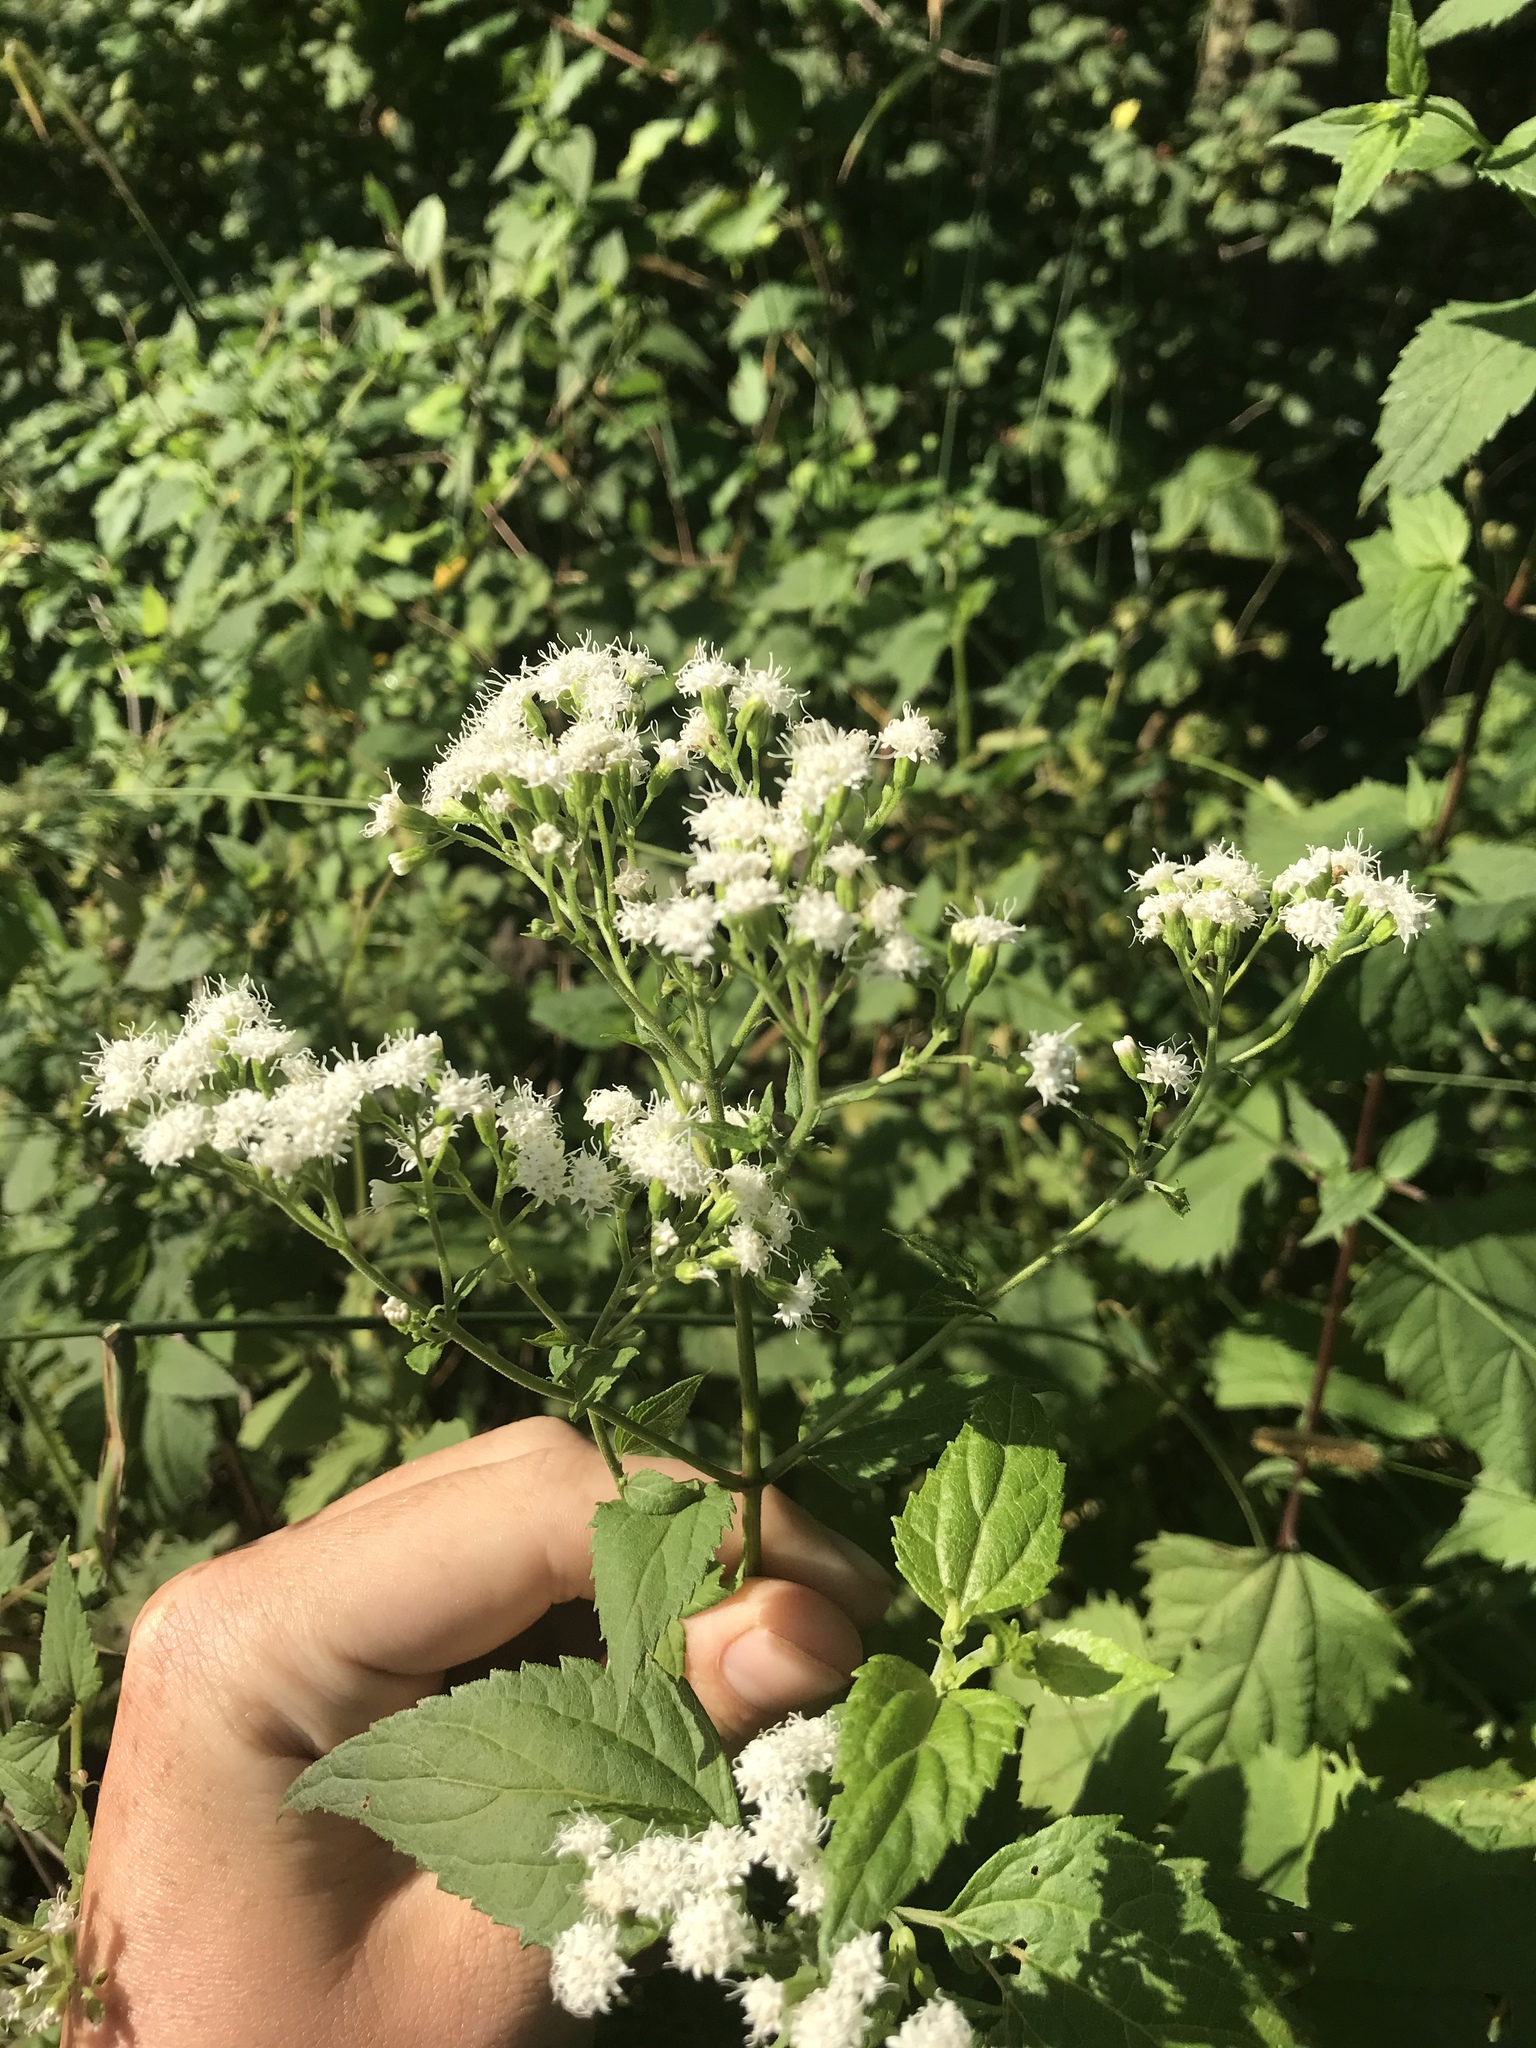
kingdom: Plantae
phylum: Tracheophyta
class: Magnoliopsida
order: Asterales
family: Asteraceae
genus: Ageratina
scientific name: Ageratina altissima
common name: White snakeroot
